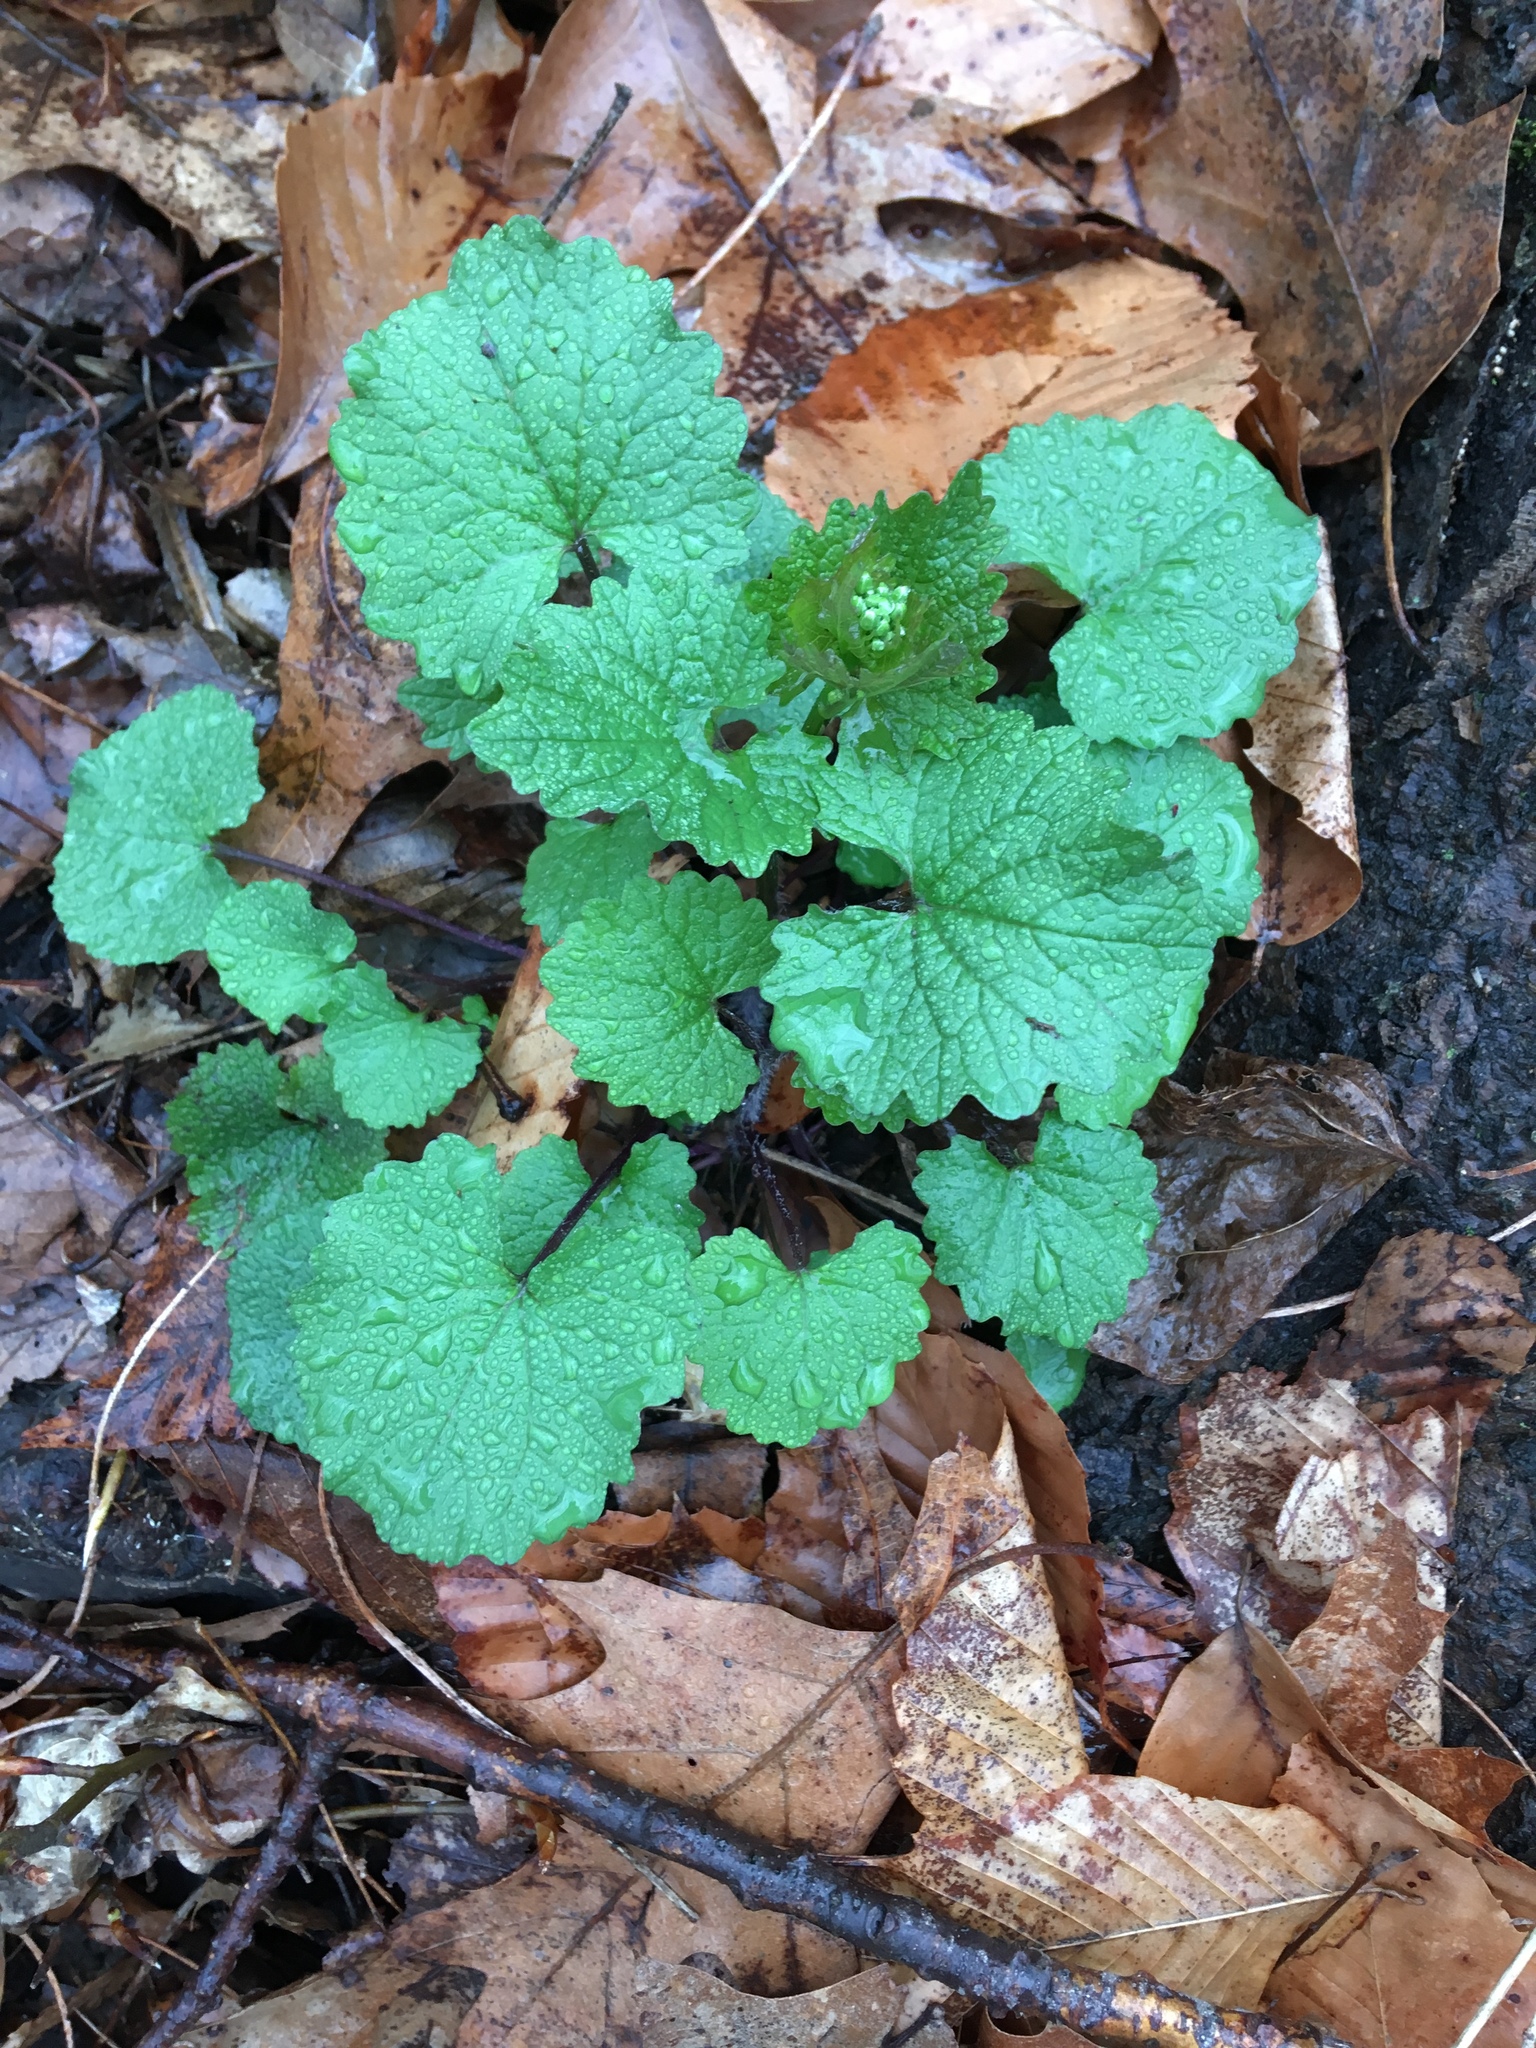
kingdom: Plantae
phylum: Tracheophyta
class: Magnoliopsida
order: Brassicales
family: Brassicaceae
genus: Alliaria
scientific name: Alliaria petiolata
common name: Garlic mustard
